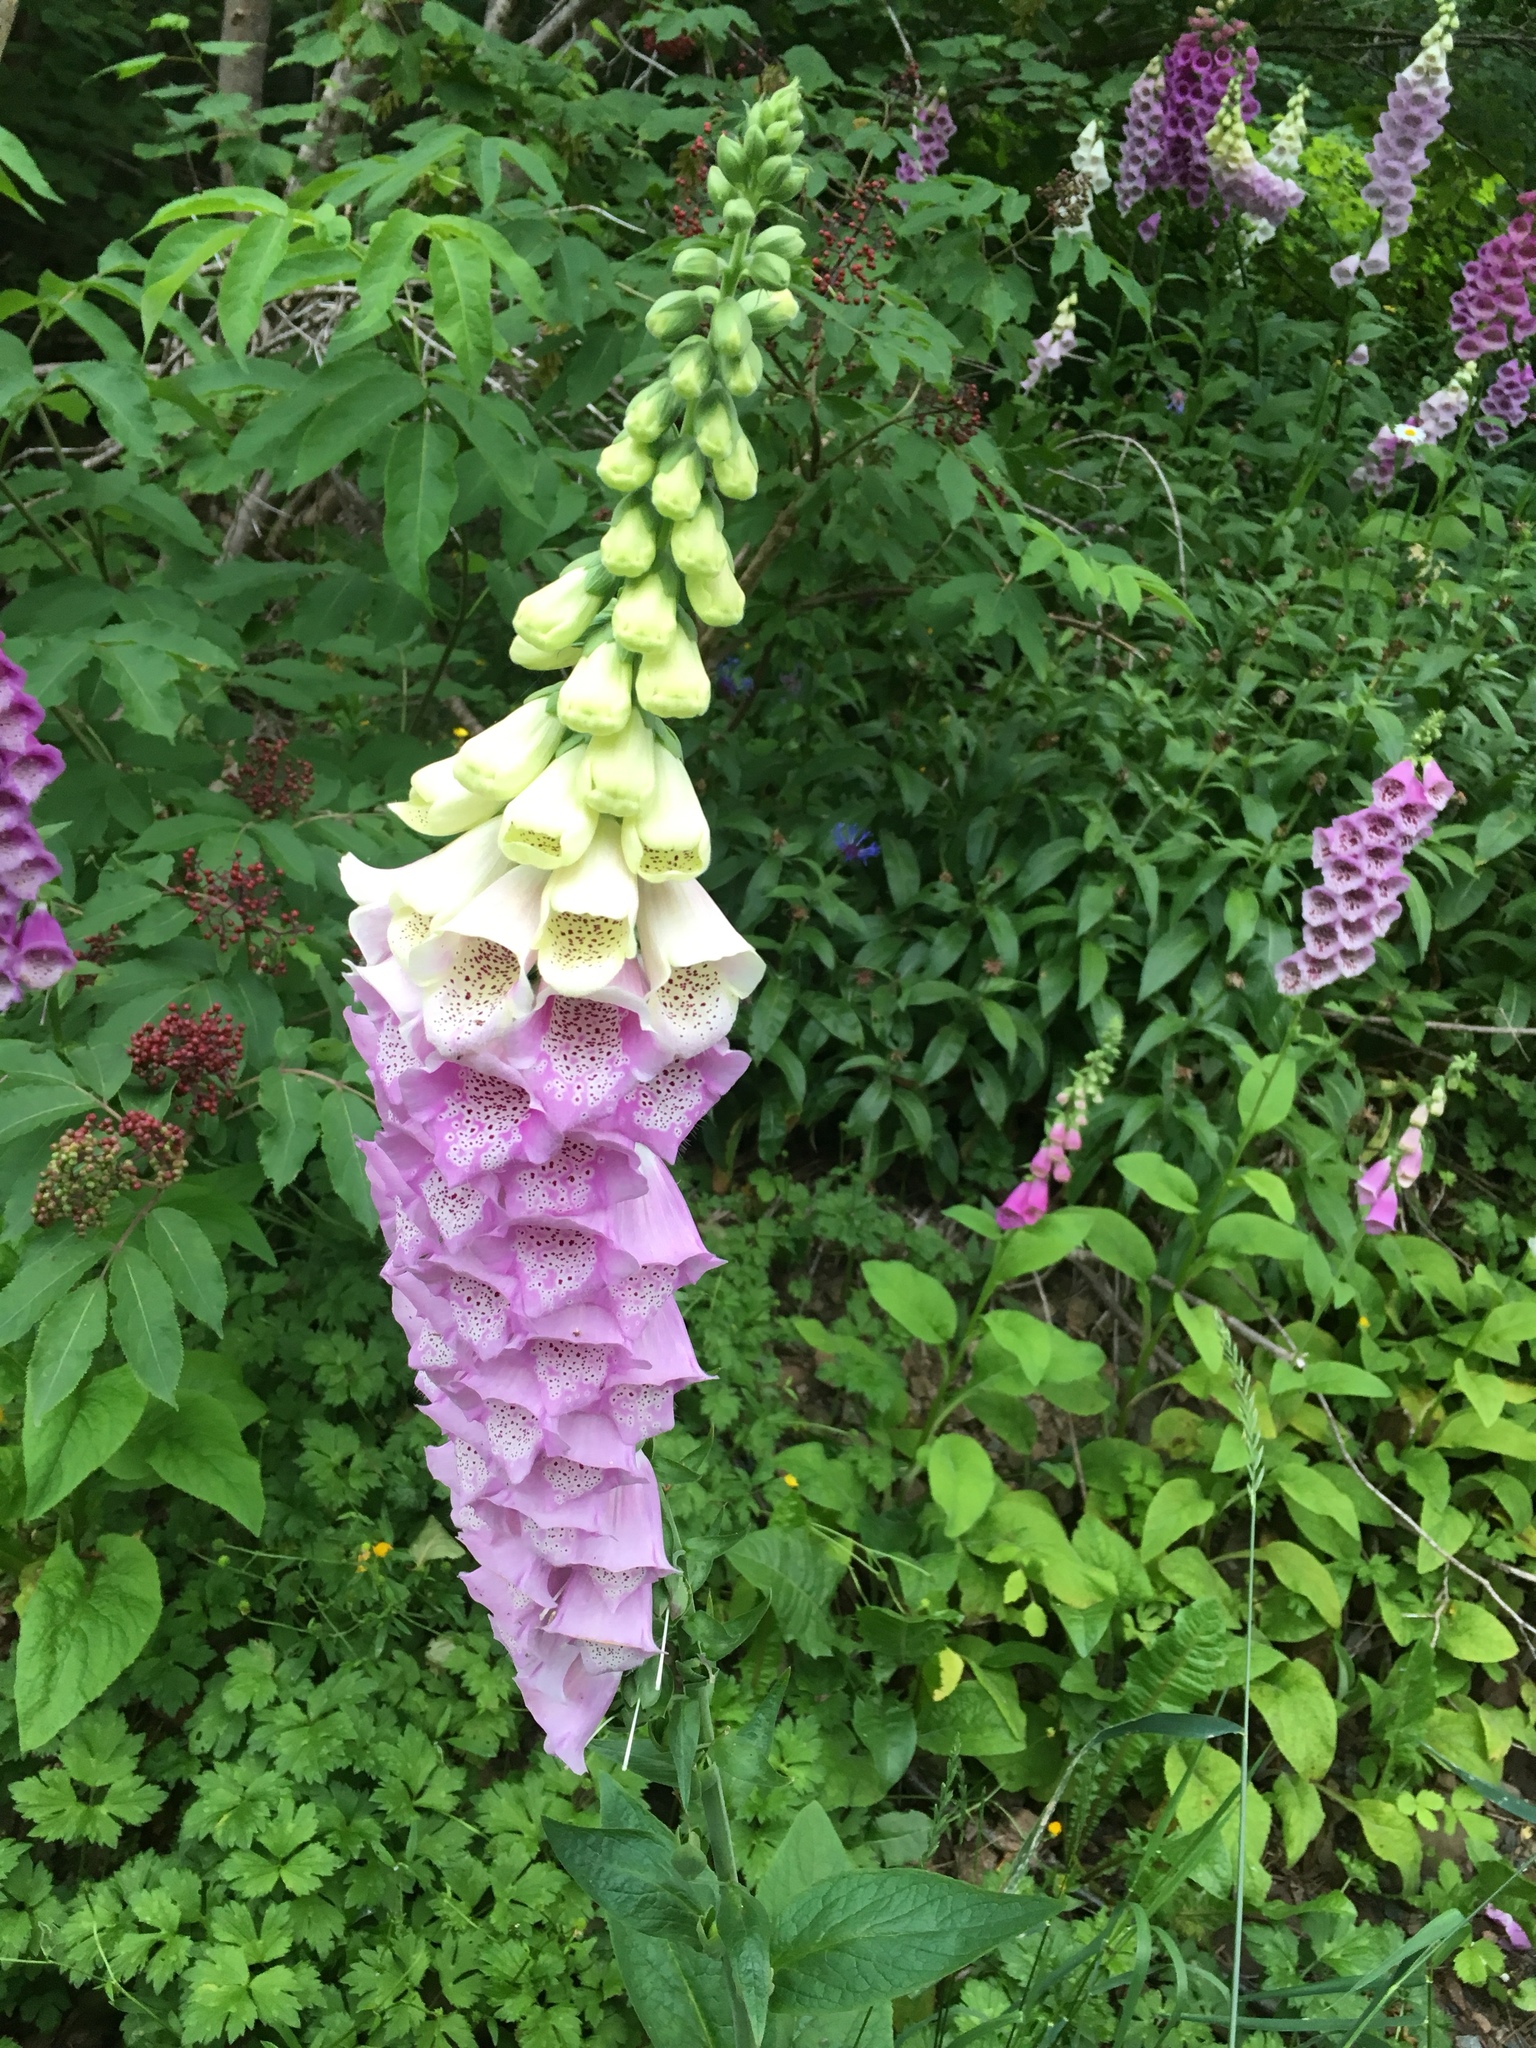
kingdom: Plantae
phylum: Tracheophyta
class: Magnoliopsida
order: Lamiales
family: Plantaginaceae
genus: Digitalis
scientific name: Digitalis purpurea
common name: Foxglove
